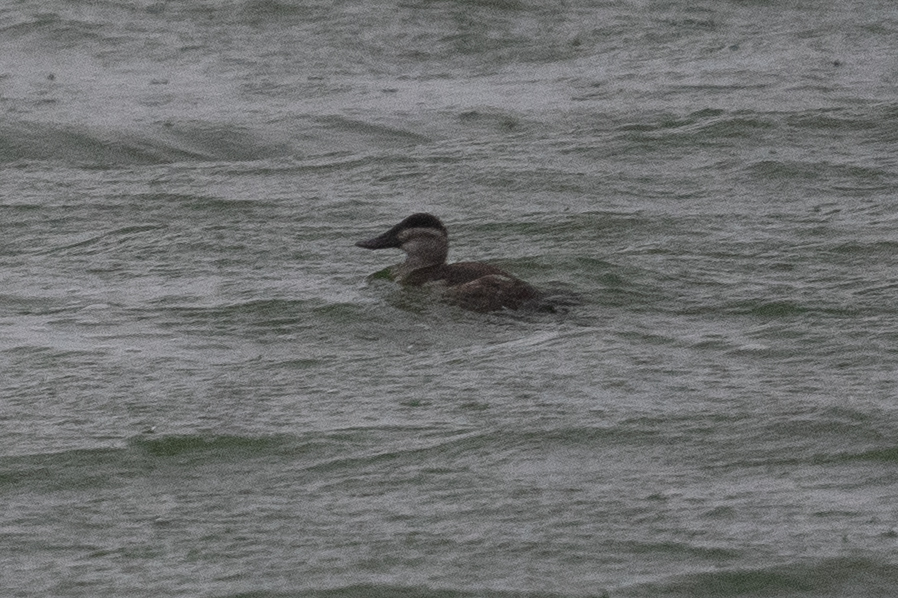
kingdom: Animalia
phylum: Chordata
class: Aves
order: Anseriformes
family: Anatidae
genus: Oxyura
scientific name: Oxyura jamaicensis
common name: Ruddy duck
